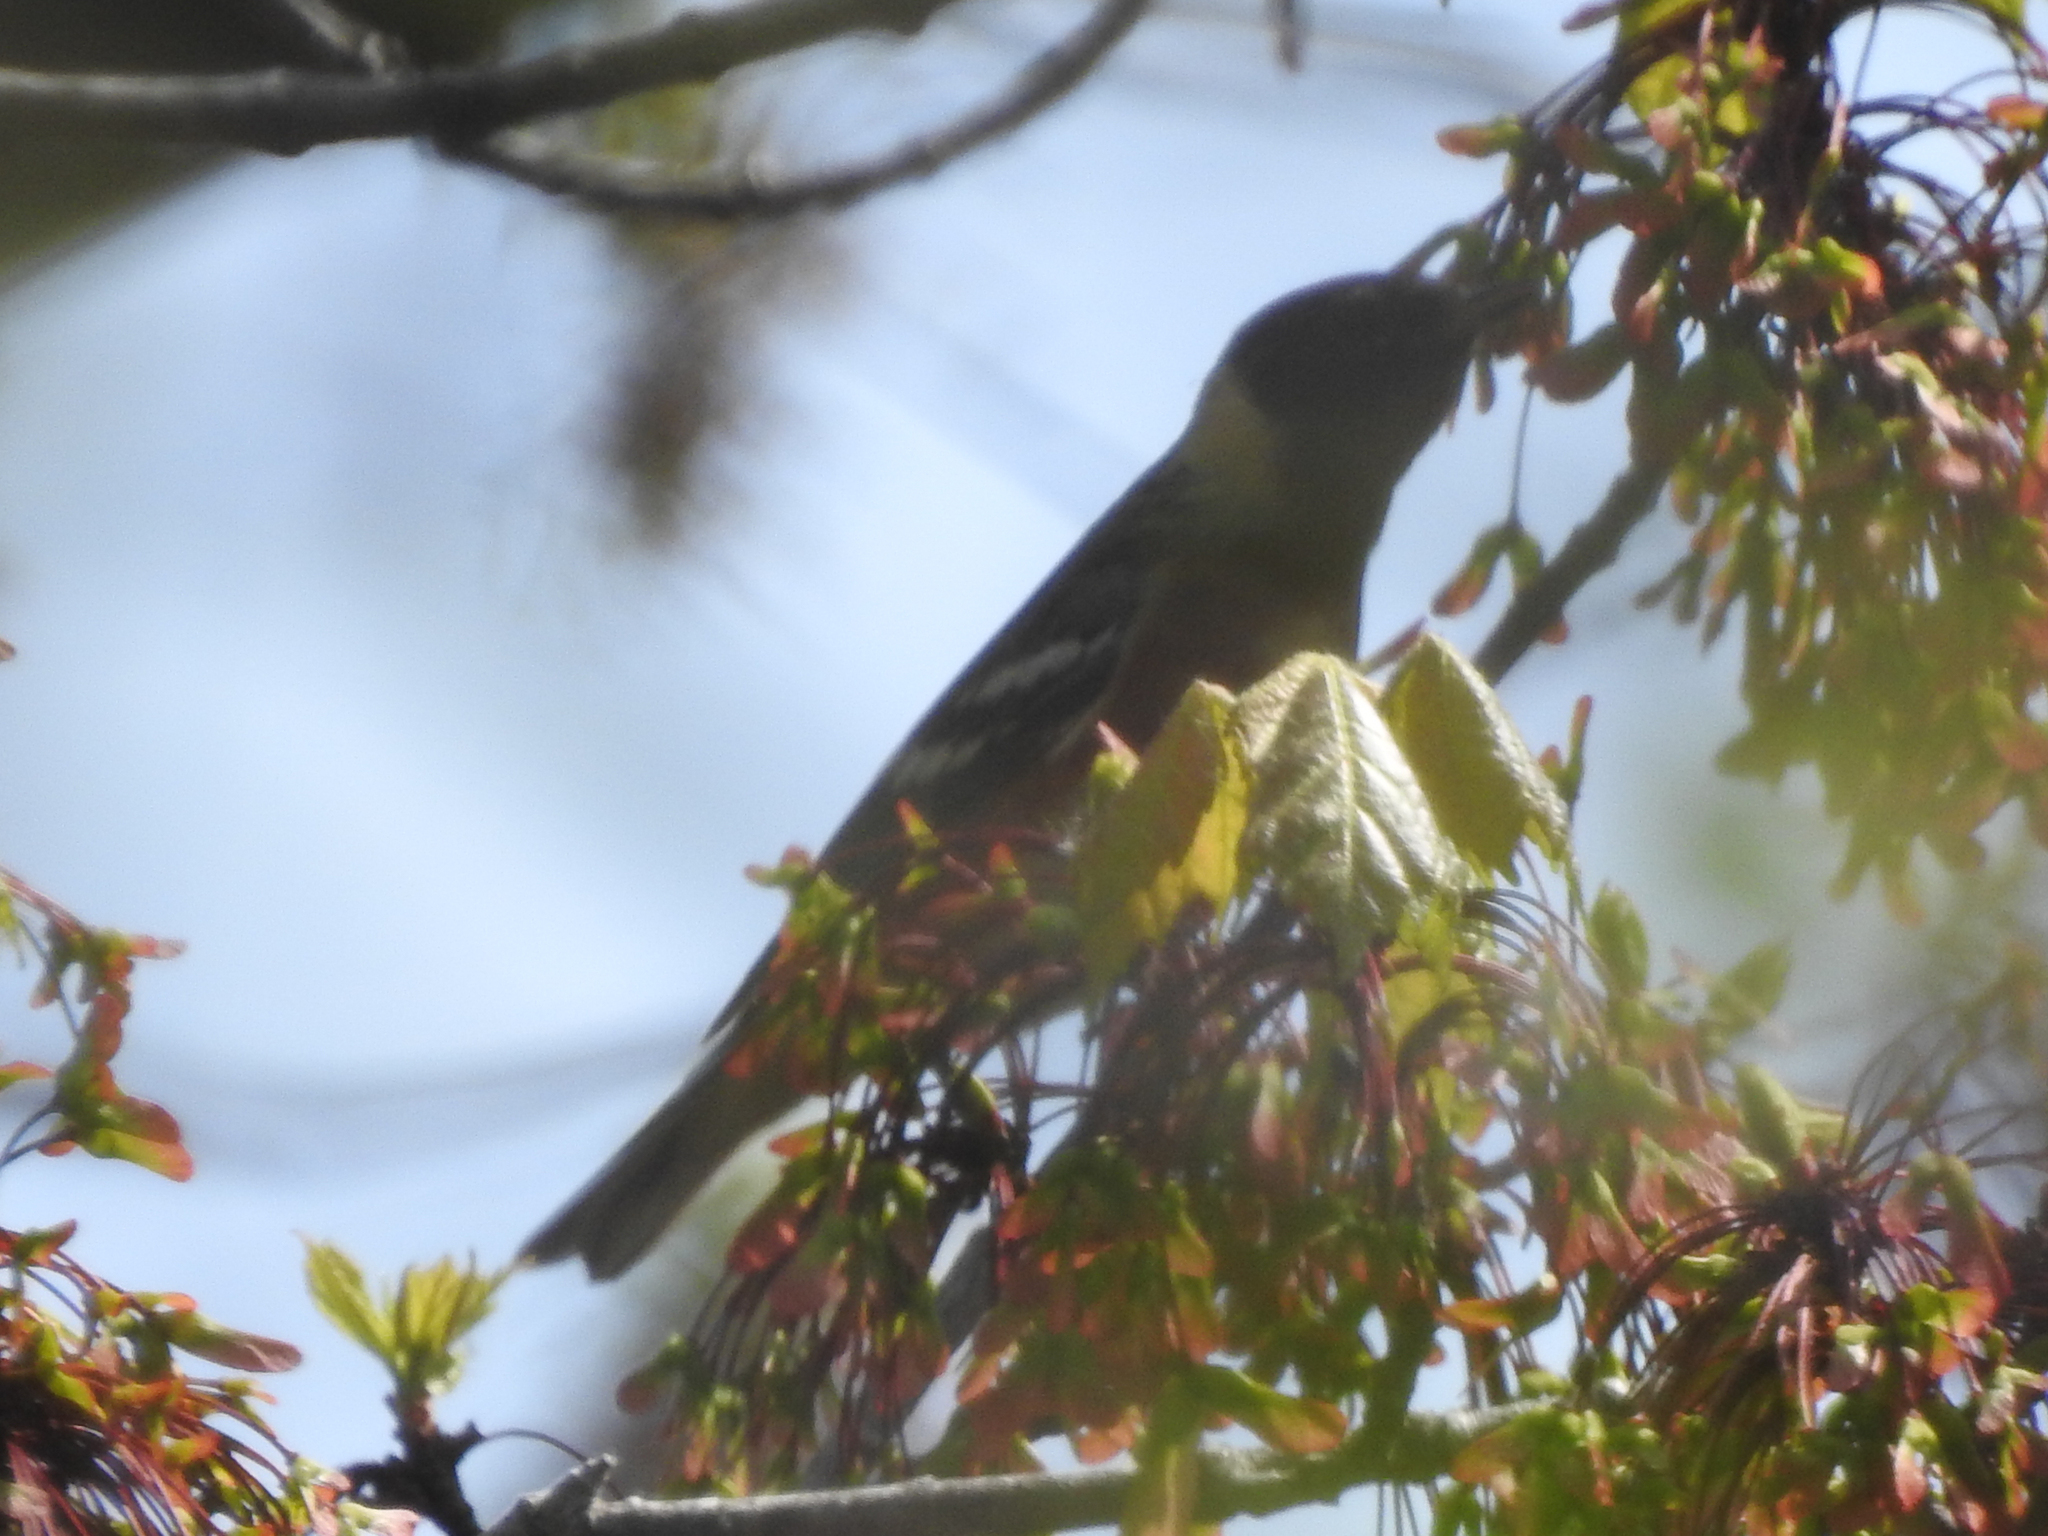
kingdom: Animalia
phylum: Chordata
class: Aves
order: Passeriformes
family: Parulidae
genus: Setophaga
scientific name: Setophaga castanea
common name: Bay-breasted warbler
